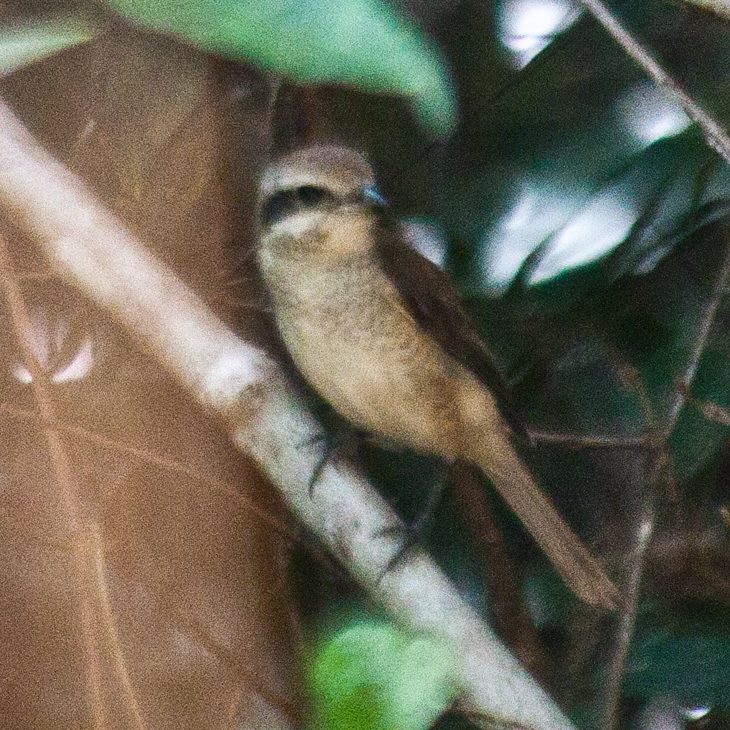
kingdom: Animalia
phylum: Chordata
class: Aves
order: Passeriformes
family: Laniidae
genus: Lanius
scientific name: Lanius cristatus
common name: Brown shrike
